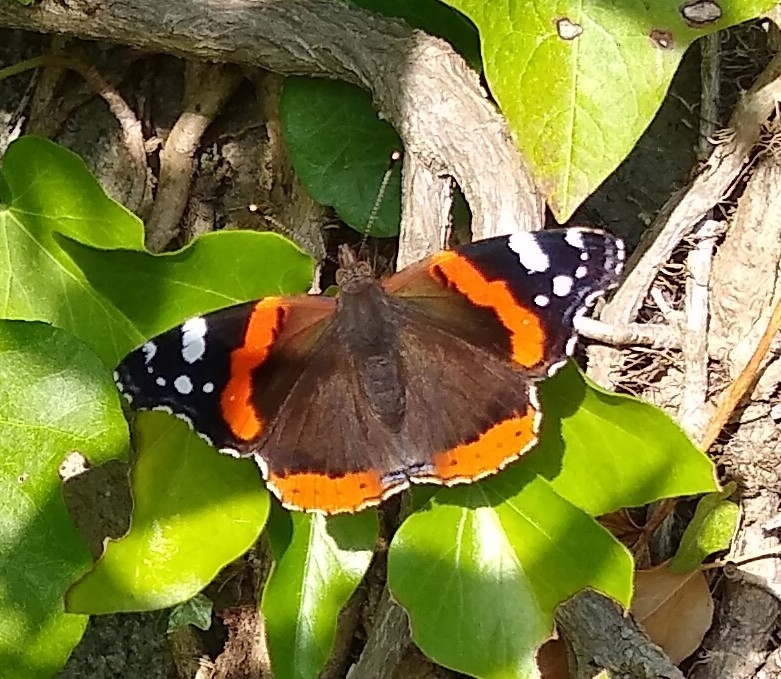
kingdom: Animalia
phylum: Arthropoda
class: Insecta
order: Lepidoptera
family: Nymphalidae
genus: Vanessa
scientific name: Vanessa atalanta
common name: Red admiral
